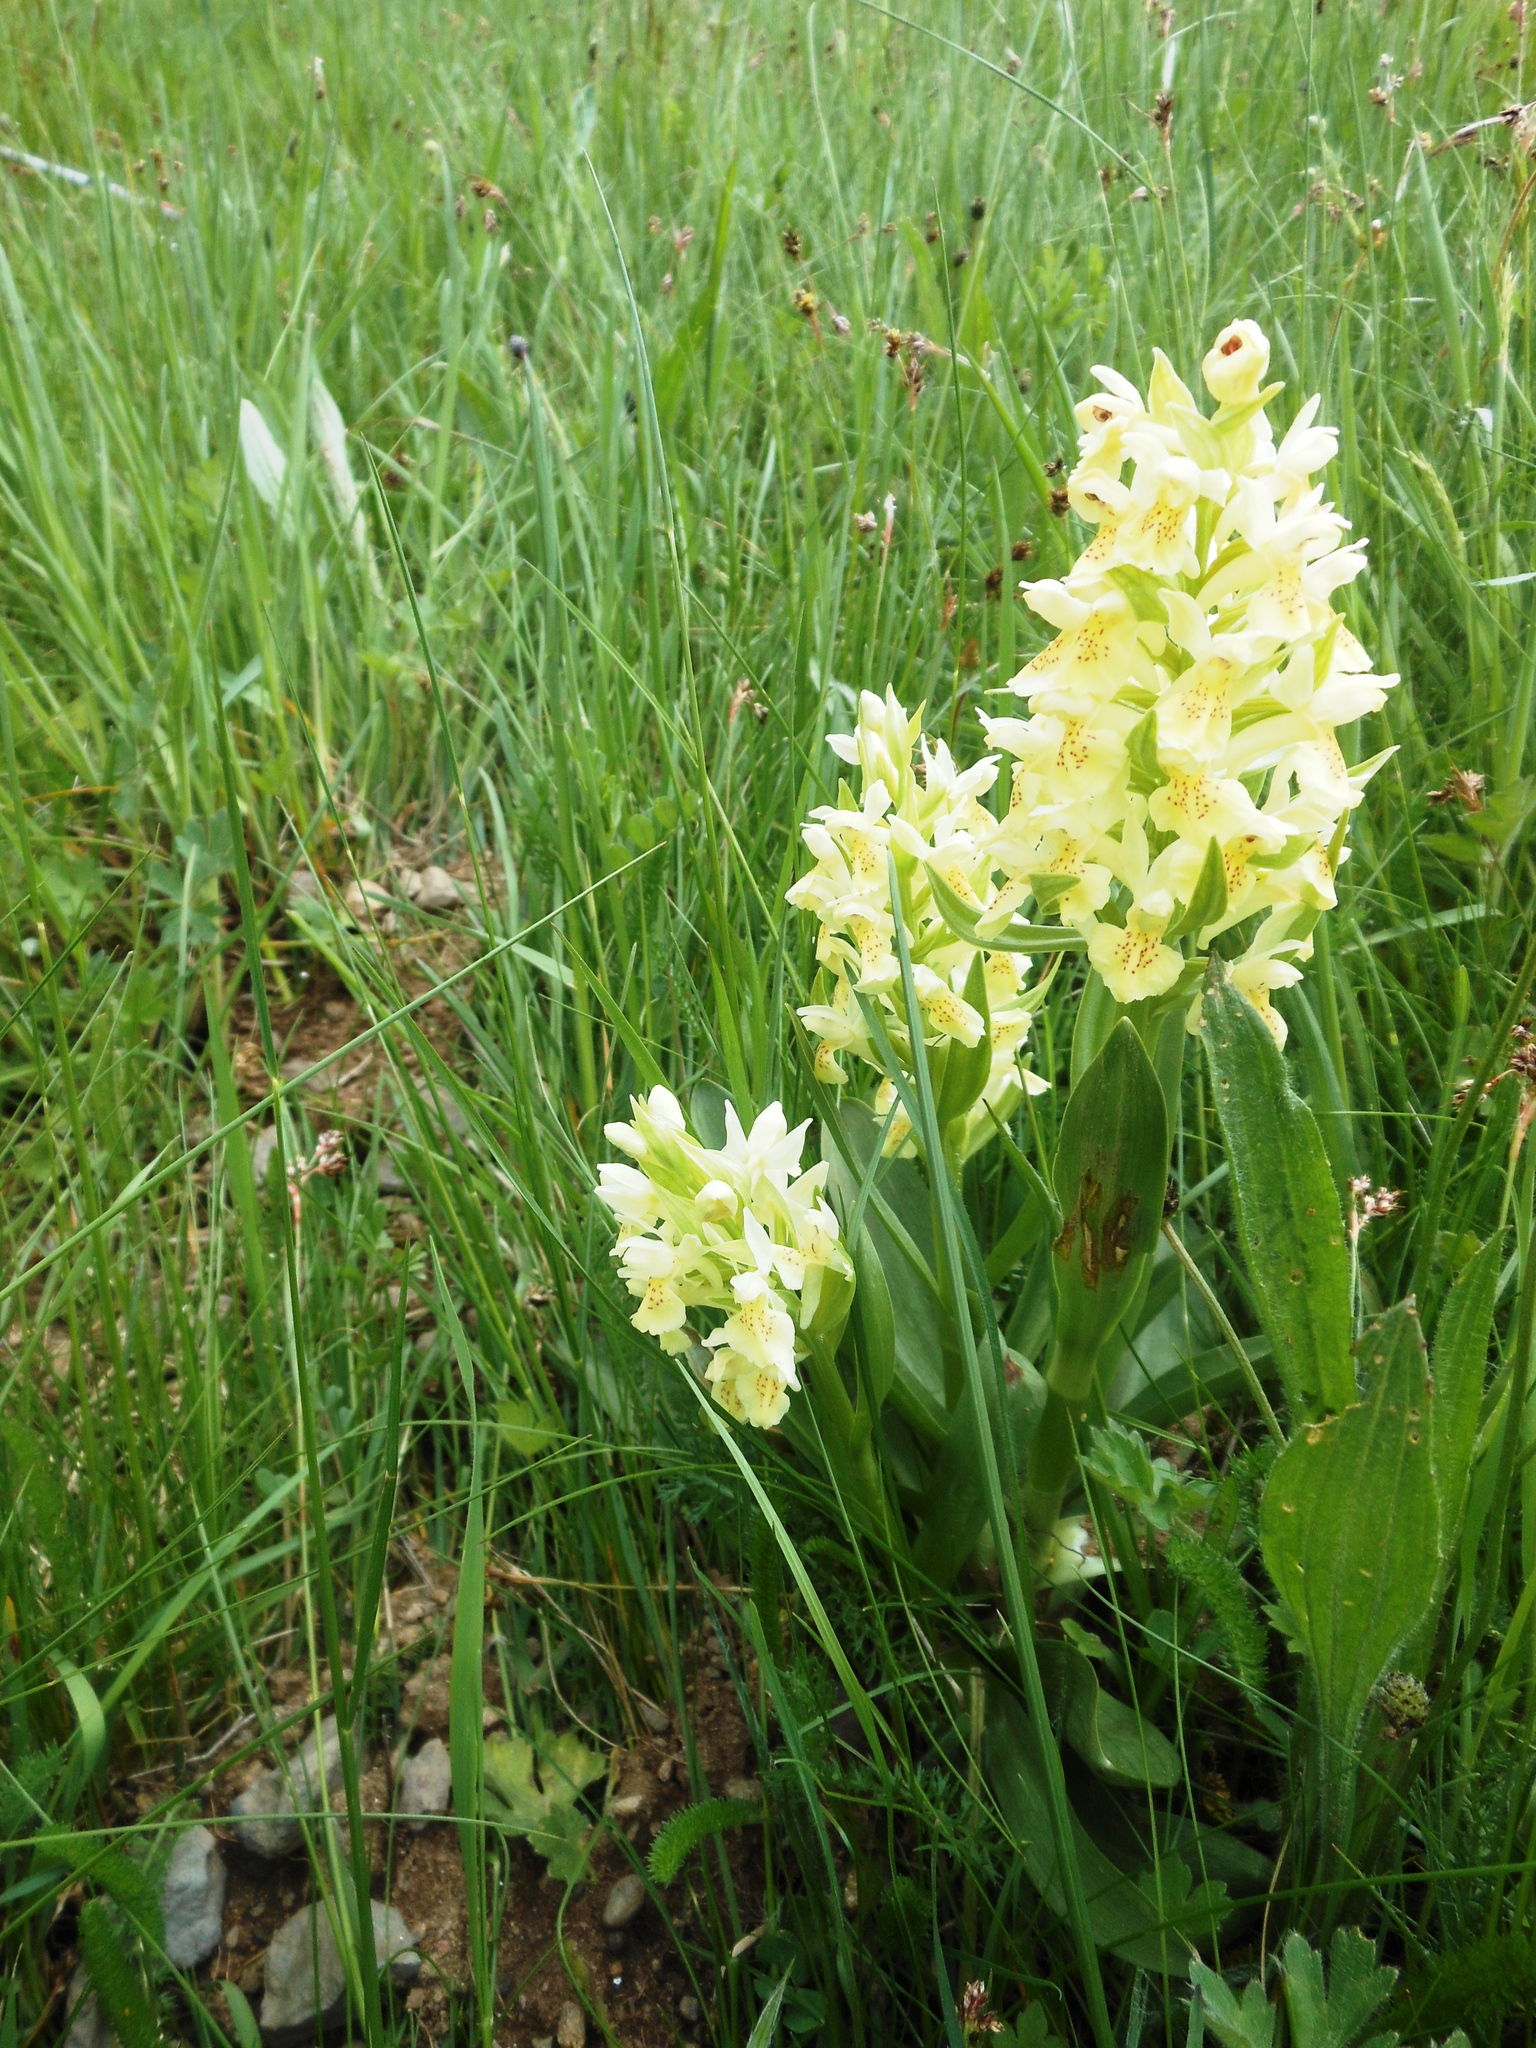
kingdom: Plantae
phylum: Tracheophyta
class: Liliopsida
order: Asparagales
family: Orchidaceae
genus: Dactylorhiza
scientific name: Dactylorhiza sambucina
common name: Elder-flowered orchid
